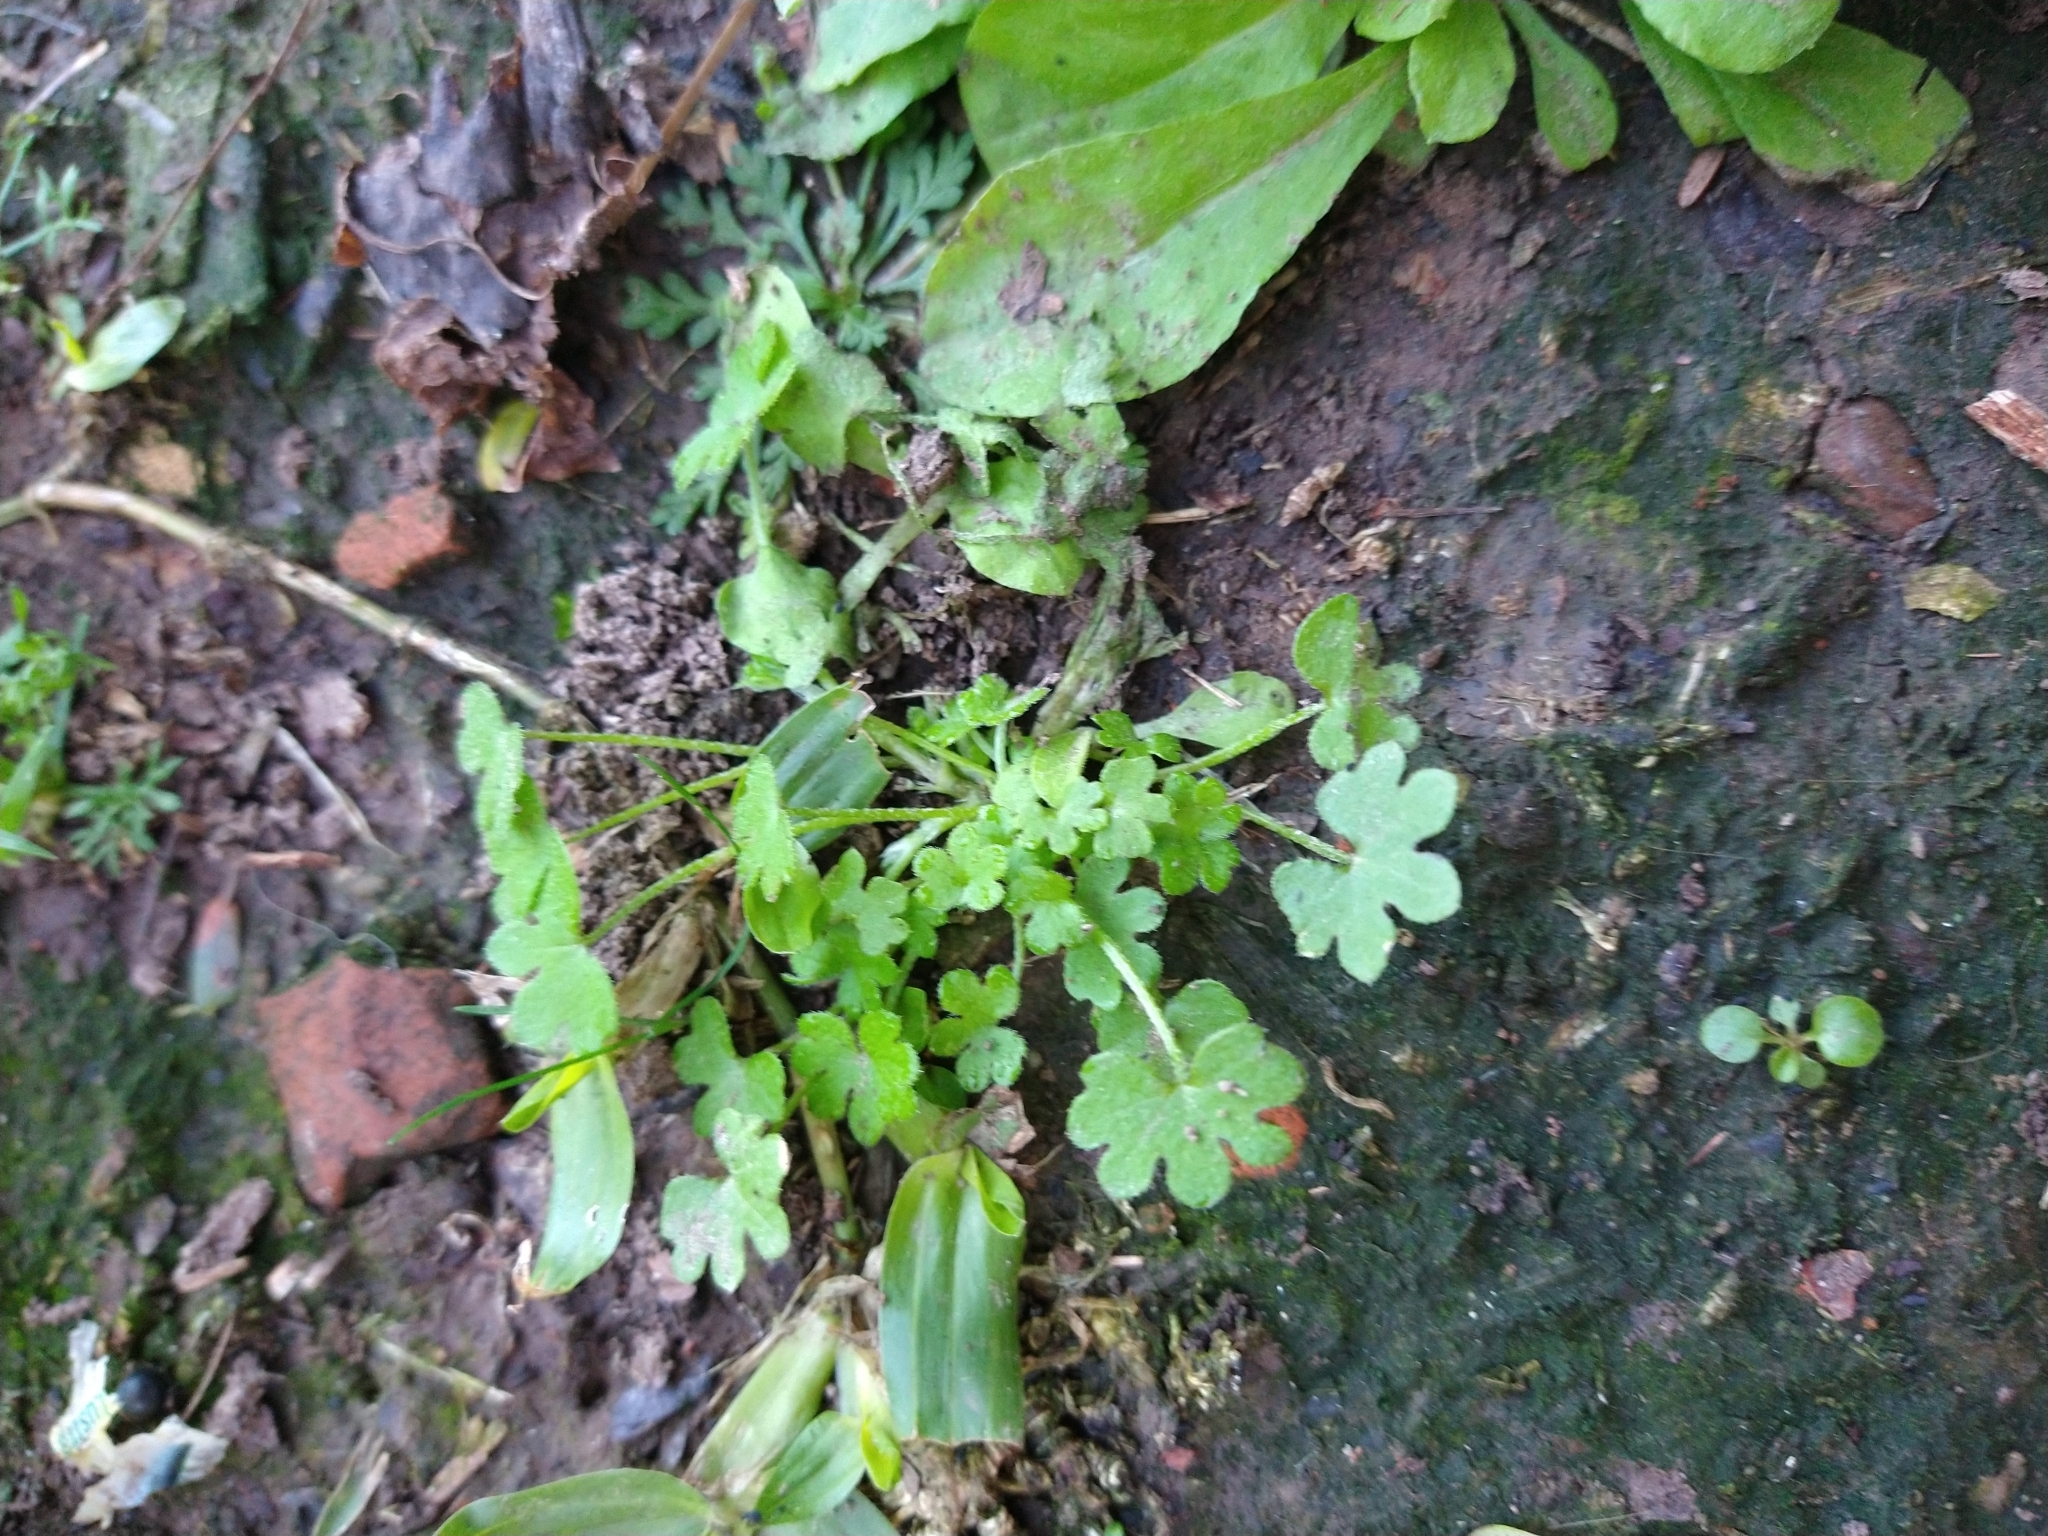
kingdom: Plantae
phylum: Tracheophyta
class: Magnoliopsida
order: Apiales
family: Apiaceae
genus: Bowlesia
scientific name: Bowlesia incana
